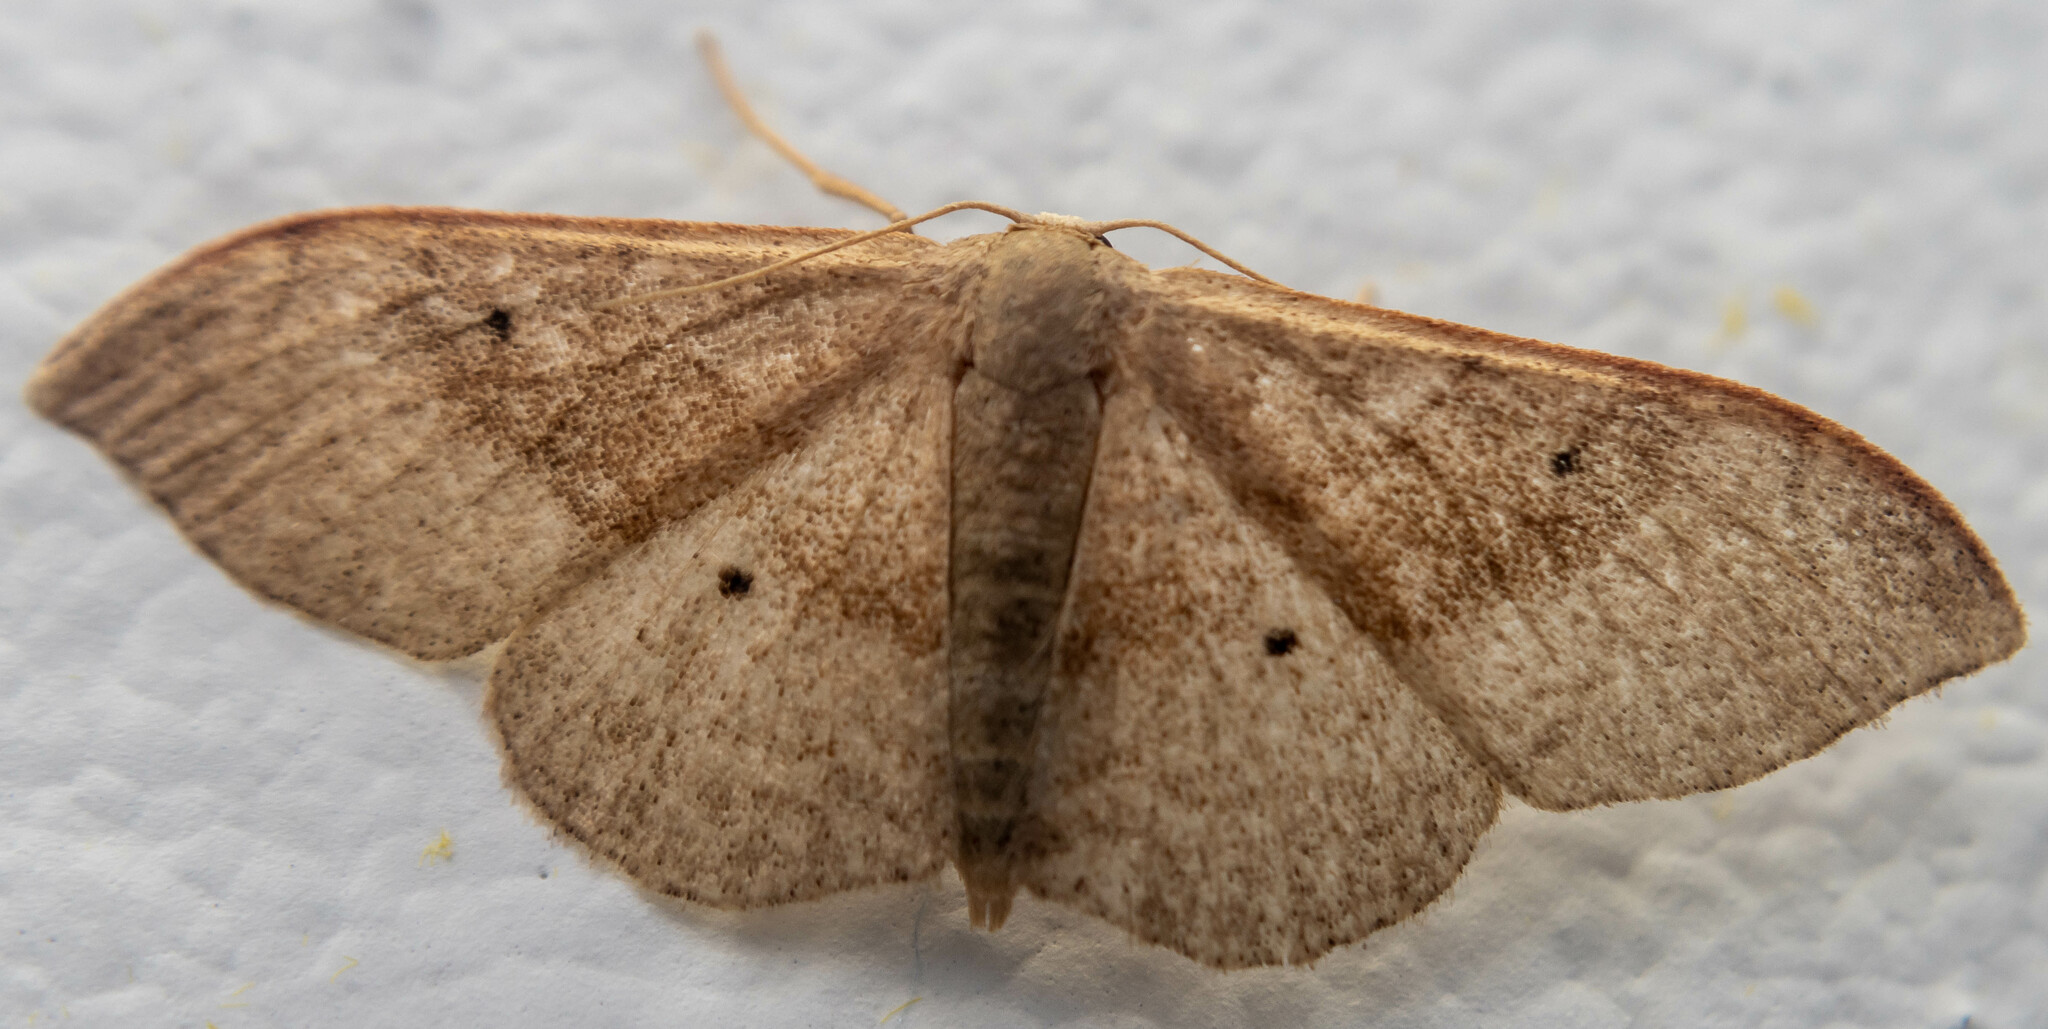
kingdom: Animalia
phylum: Arthropoda
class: Insecta
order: Lepidoptera
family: Geometridae
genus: Idaea
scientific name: Idaea degeneraria
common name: Portland ribbon wave
